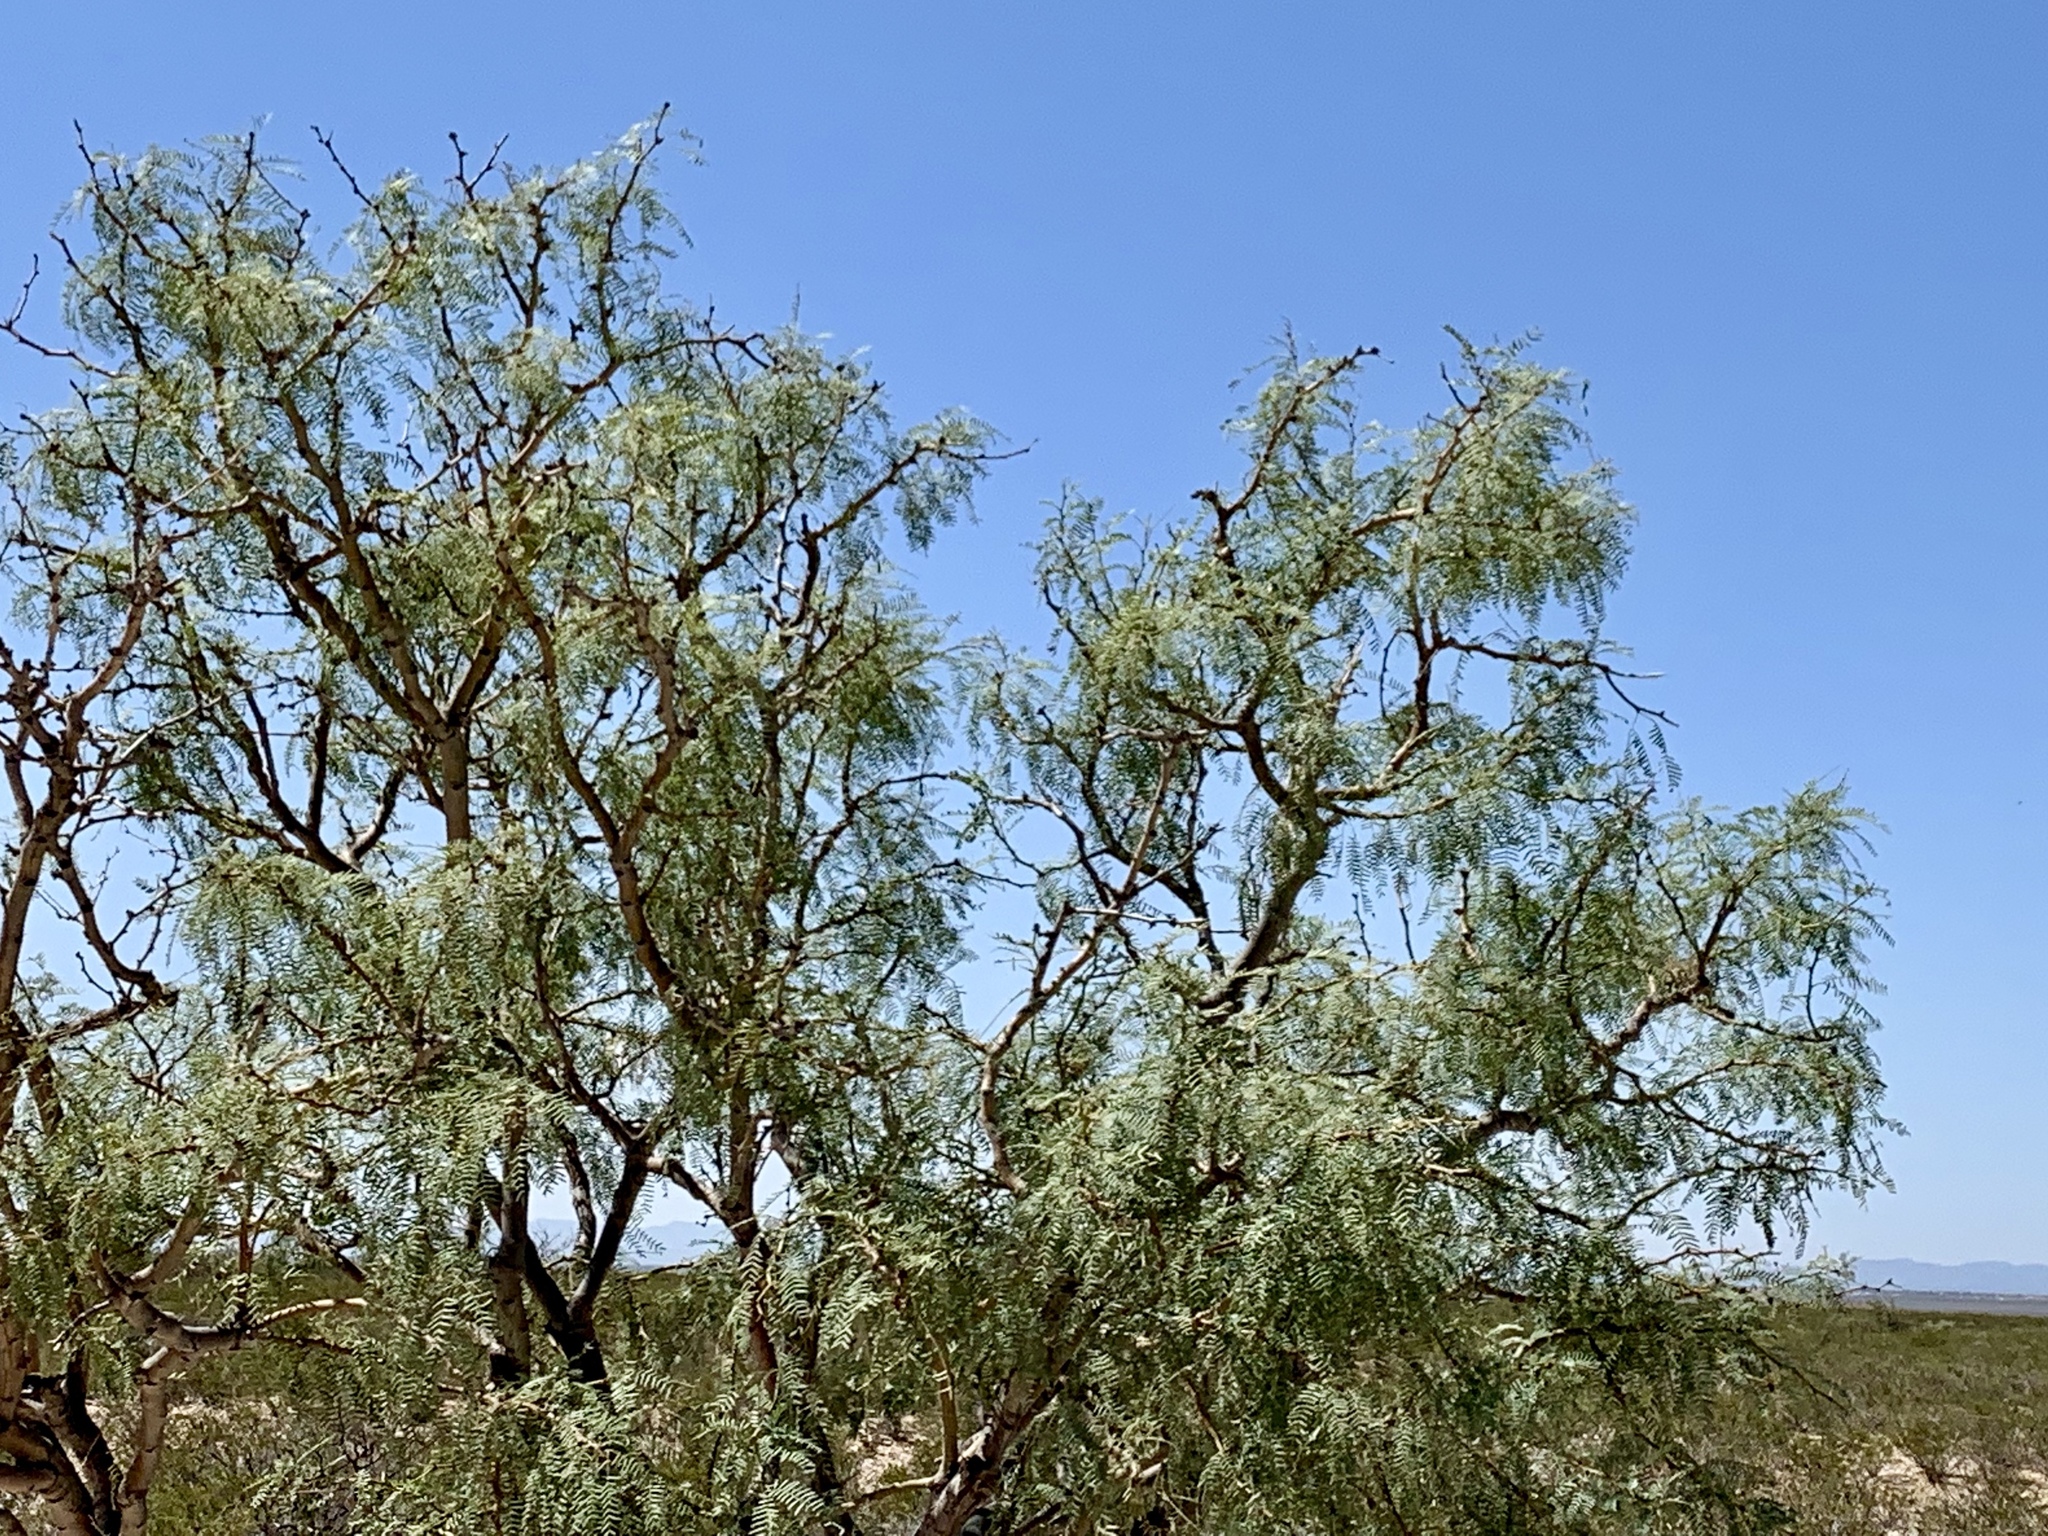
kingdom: Plantae
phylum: Tracheophyta
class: Magnoliopsida
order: Fabales
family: Fabaceae
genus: Prosopis
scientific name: Prosopis glandulosa
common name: Honey mesquite
